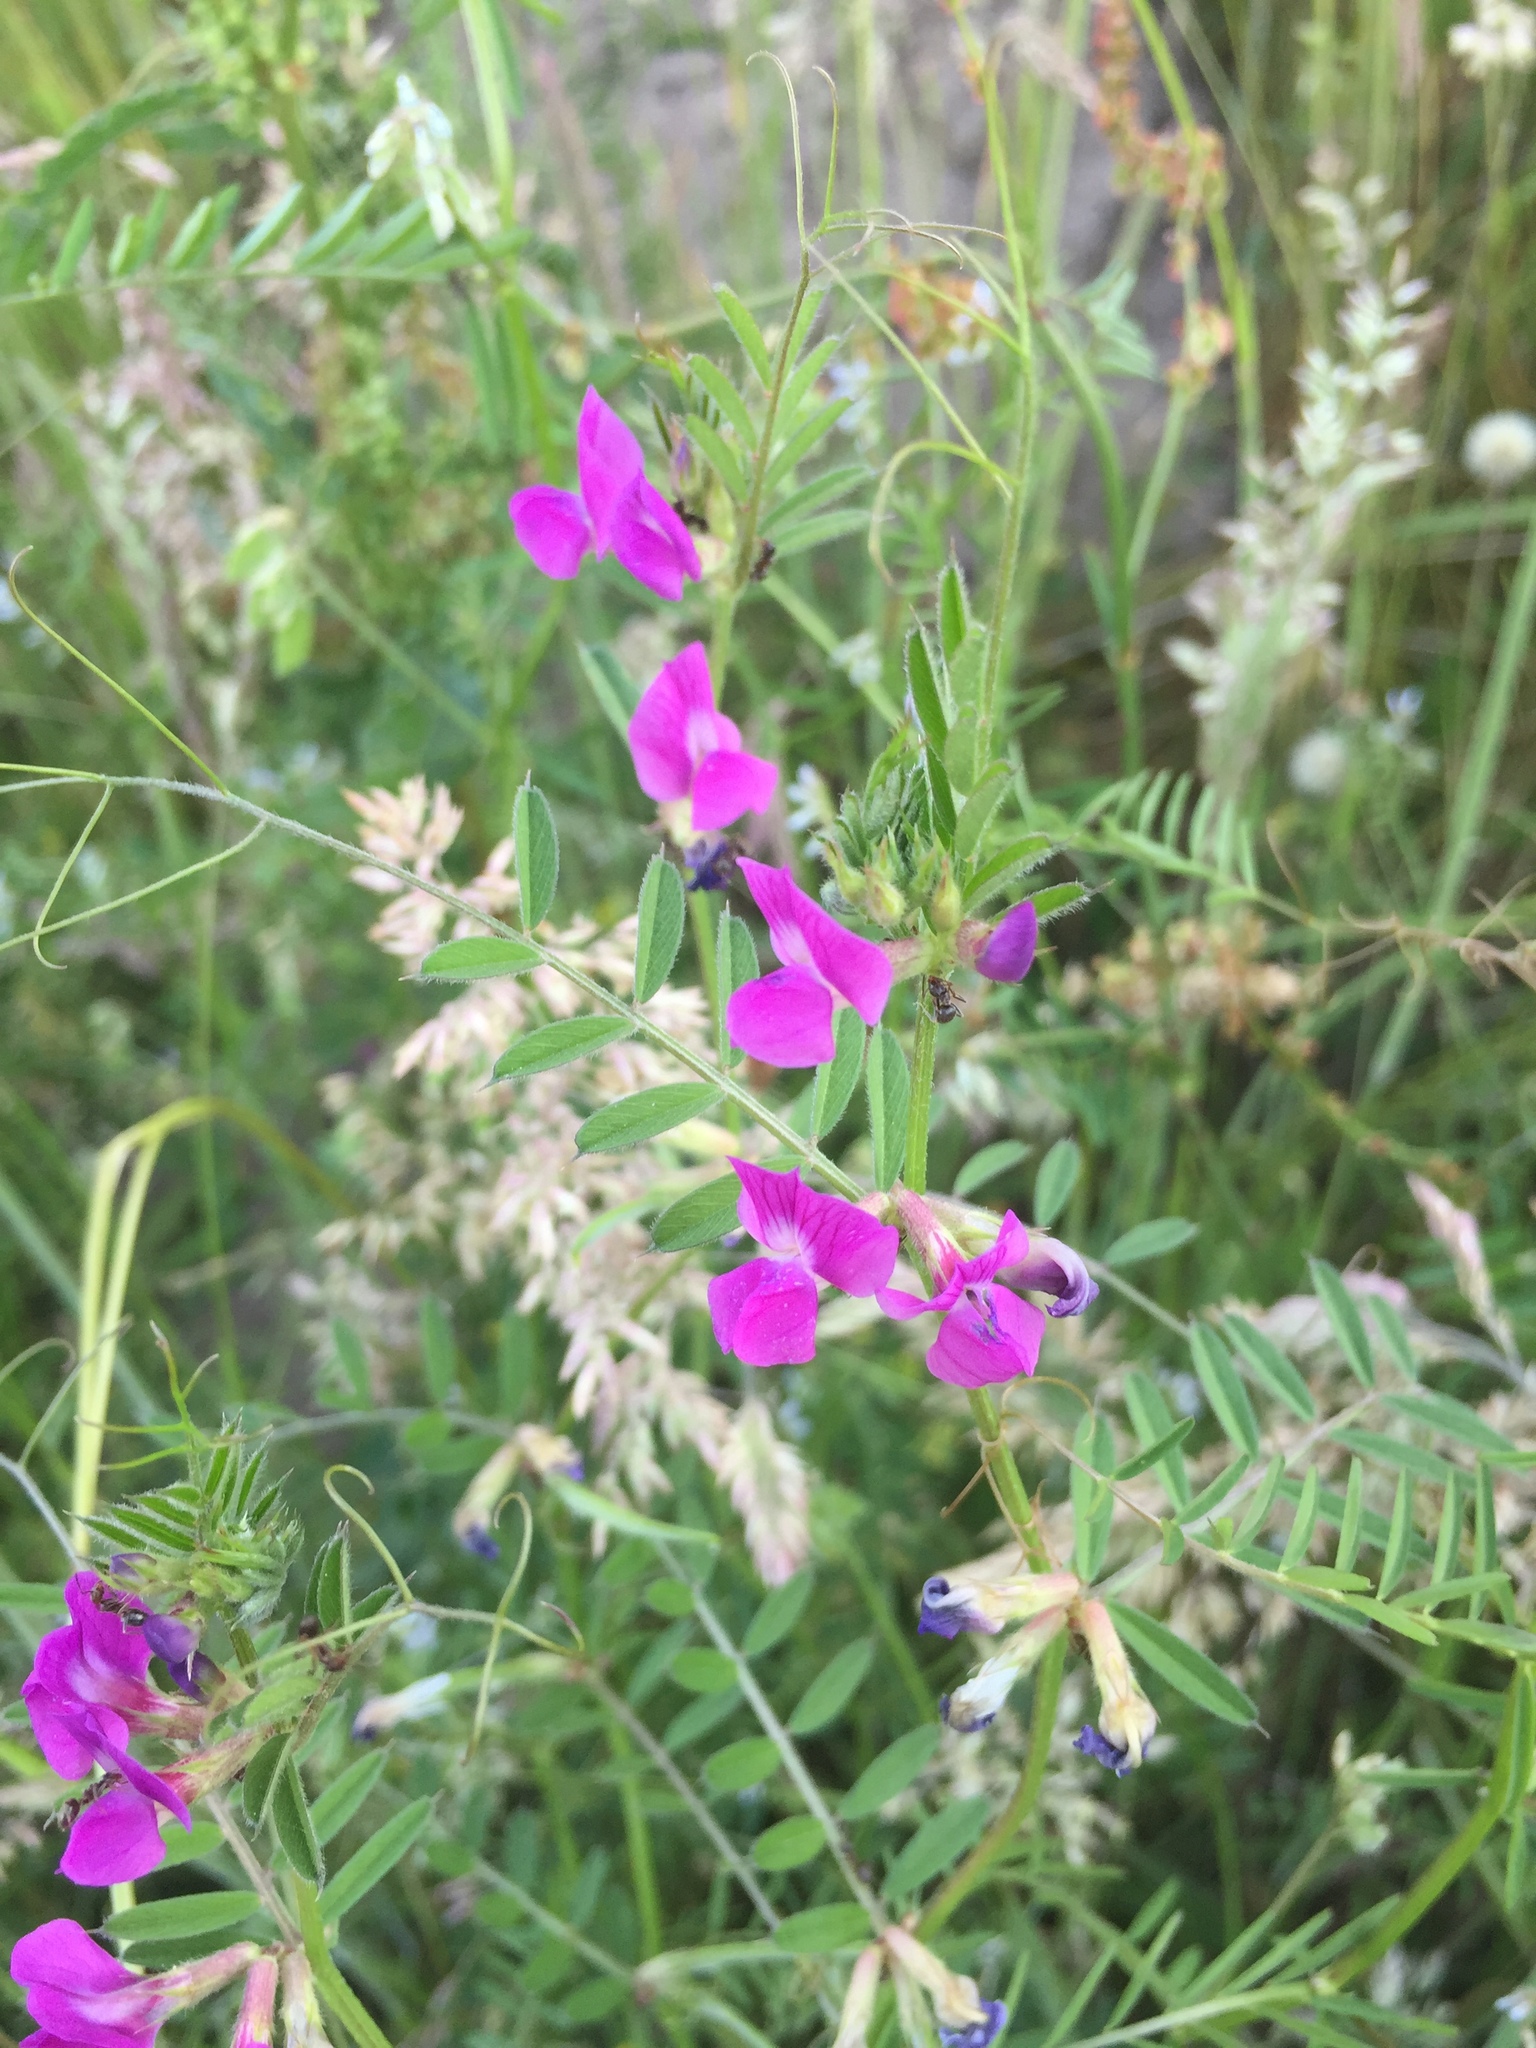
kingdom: Plantae
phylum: Tracheophyta
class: Magnoliopsida
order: Fabales
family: Fabaceae
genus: Vicia
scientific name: Vicia sativa
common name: Garden vetch
